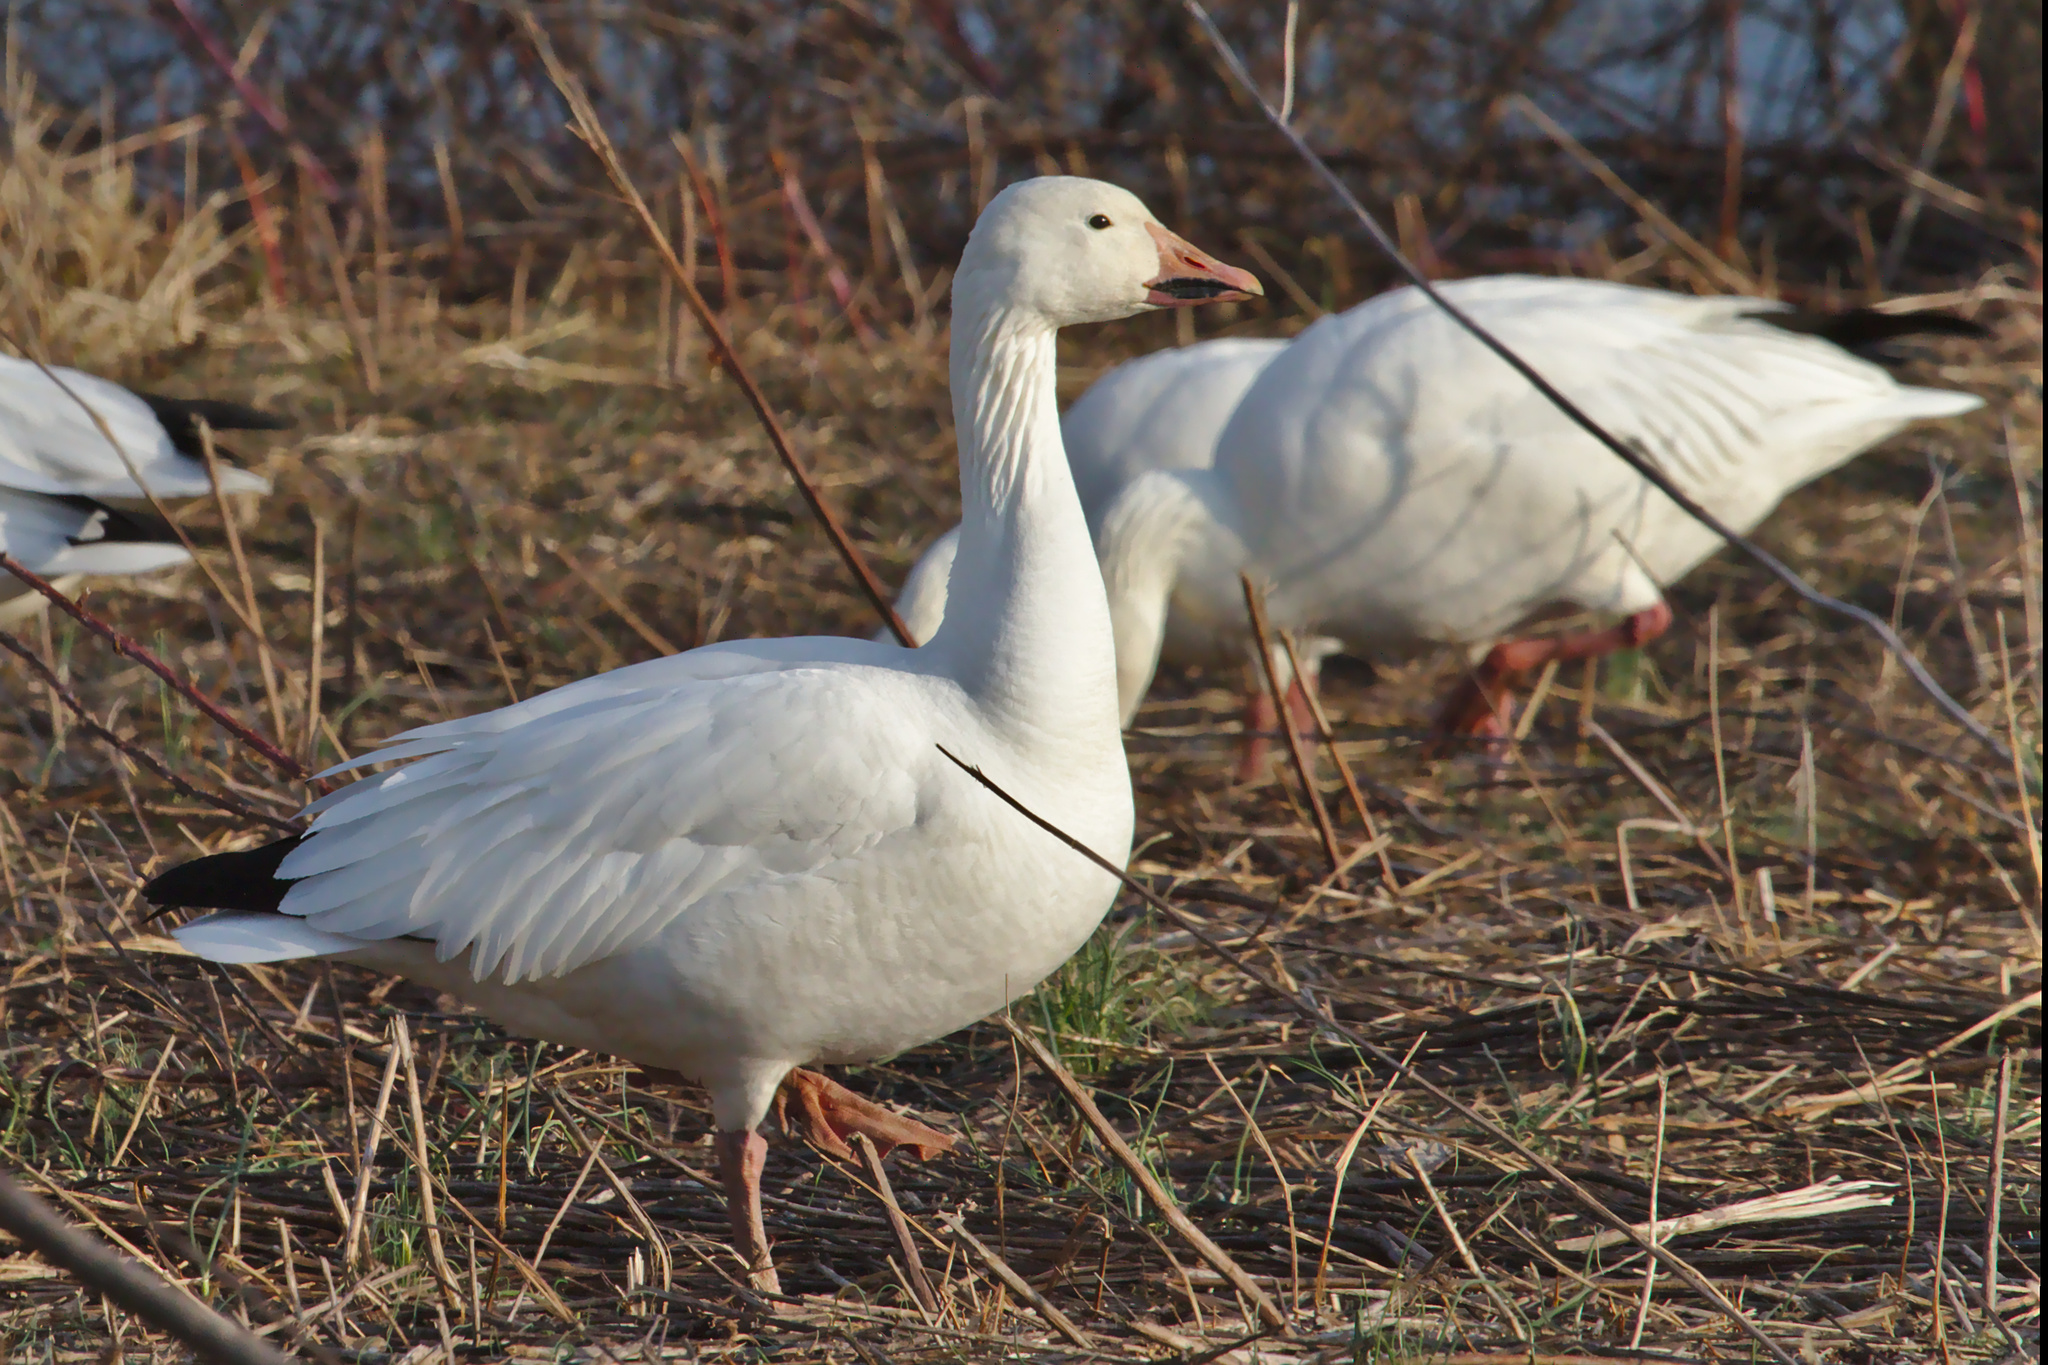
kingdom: Animalia
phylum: Chordata
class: Aves
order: Anseriformes
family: Anatidae
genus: Anser
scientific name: Anser caerulescens
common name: Snow goose
